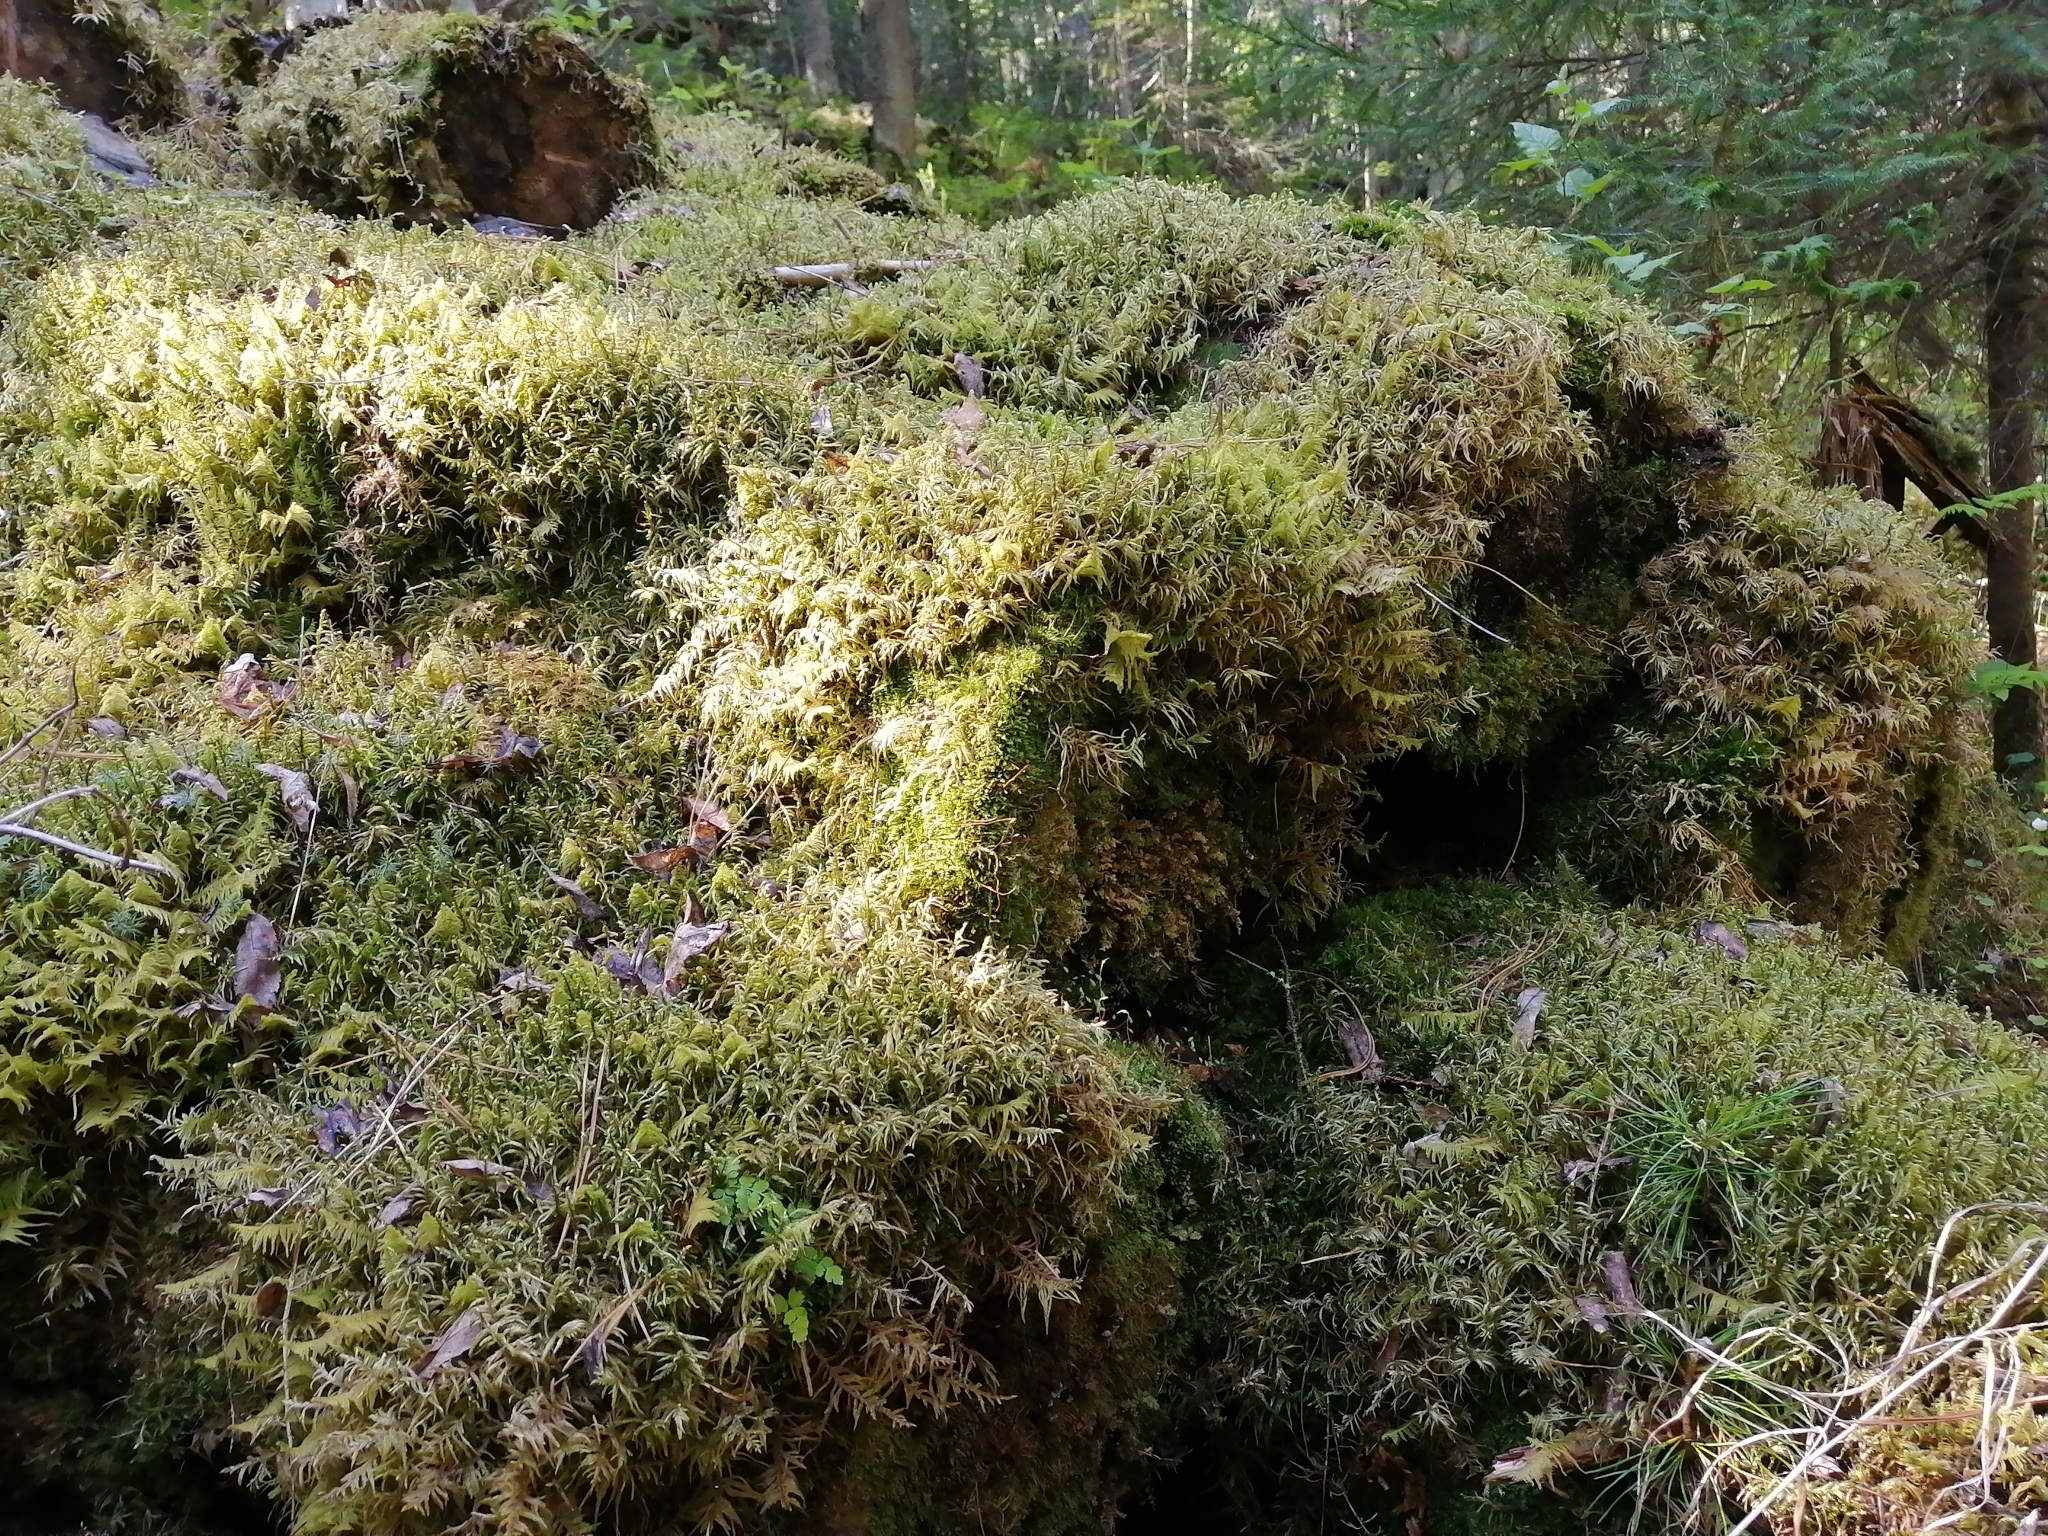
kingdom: Plantae
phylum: Bryophyta
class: Bryopsida
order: Hypnales
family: Hylocomiaceae
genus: Pleurozium
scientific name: Pleurozium schreberi
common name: Red-stemmed feather moss
